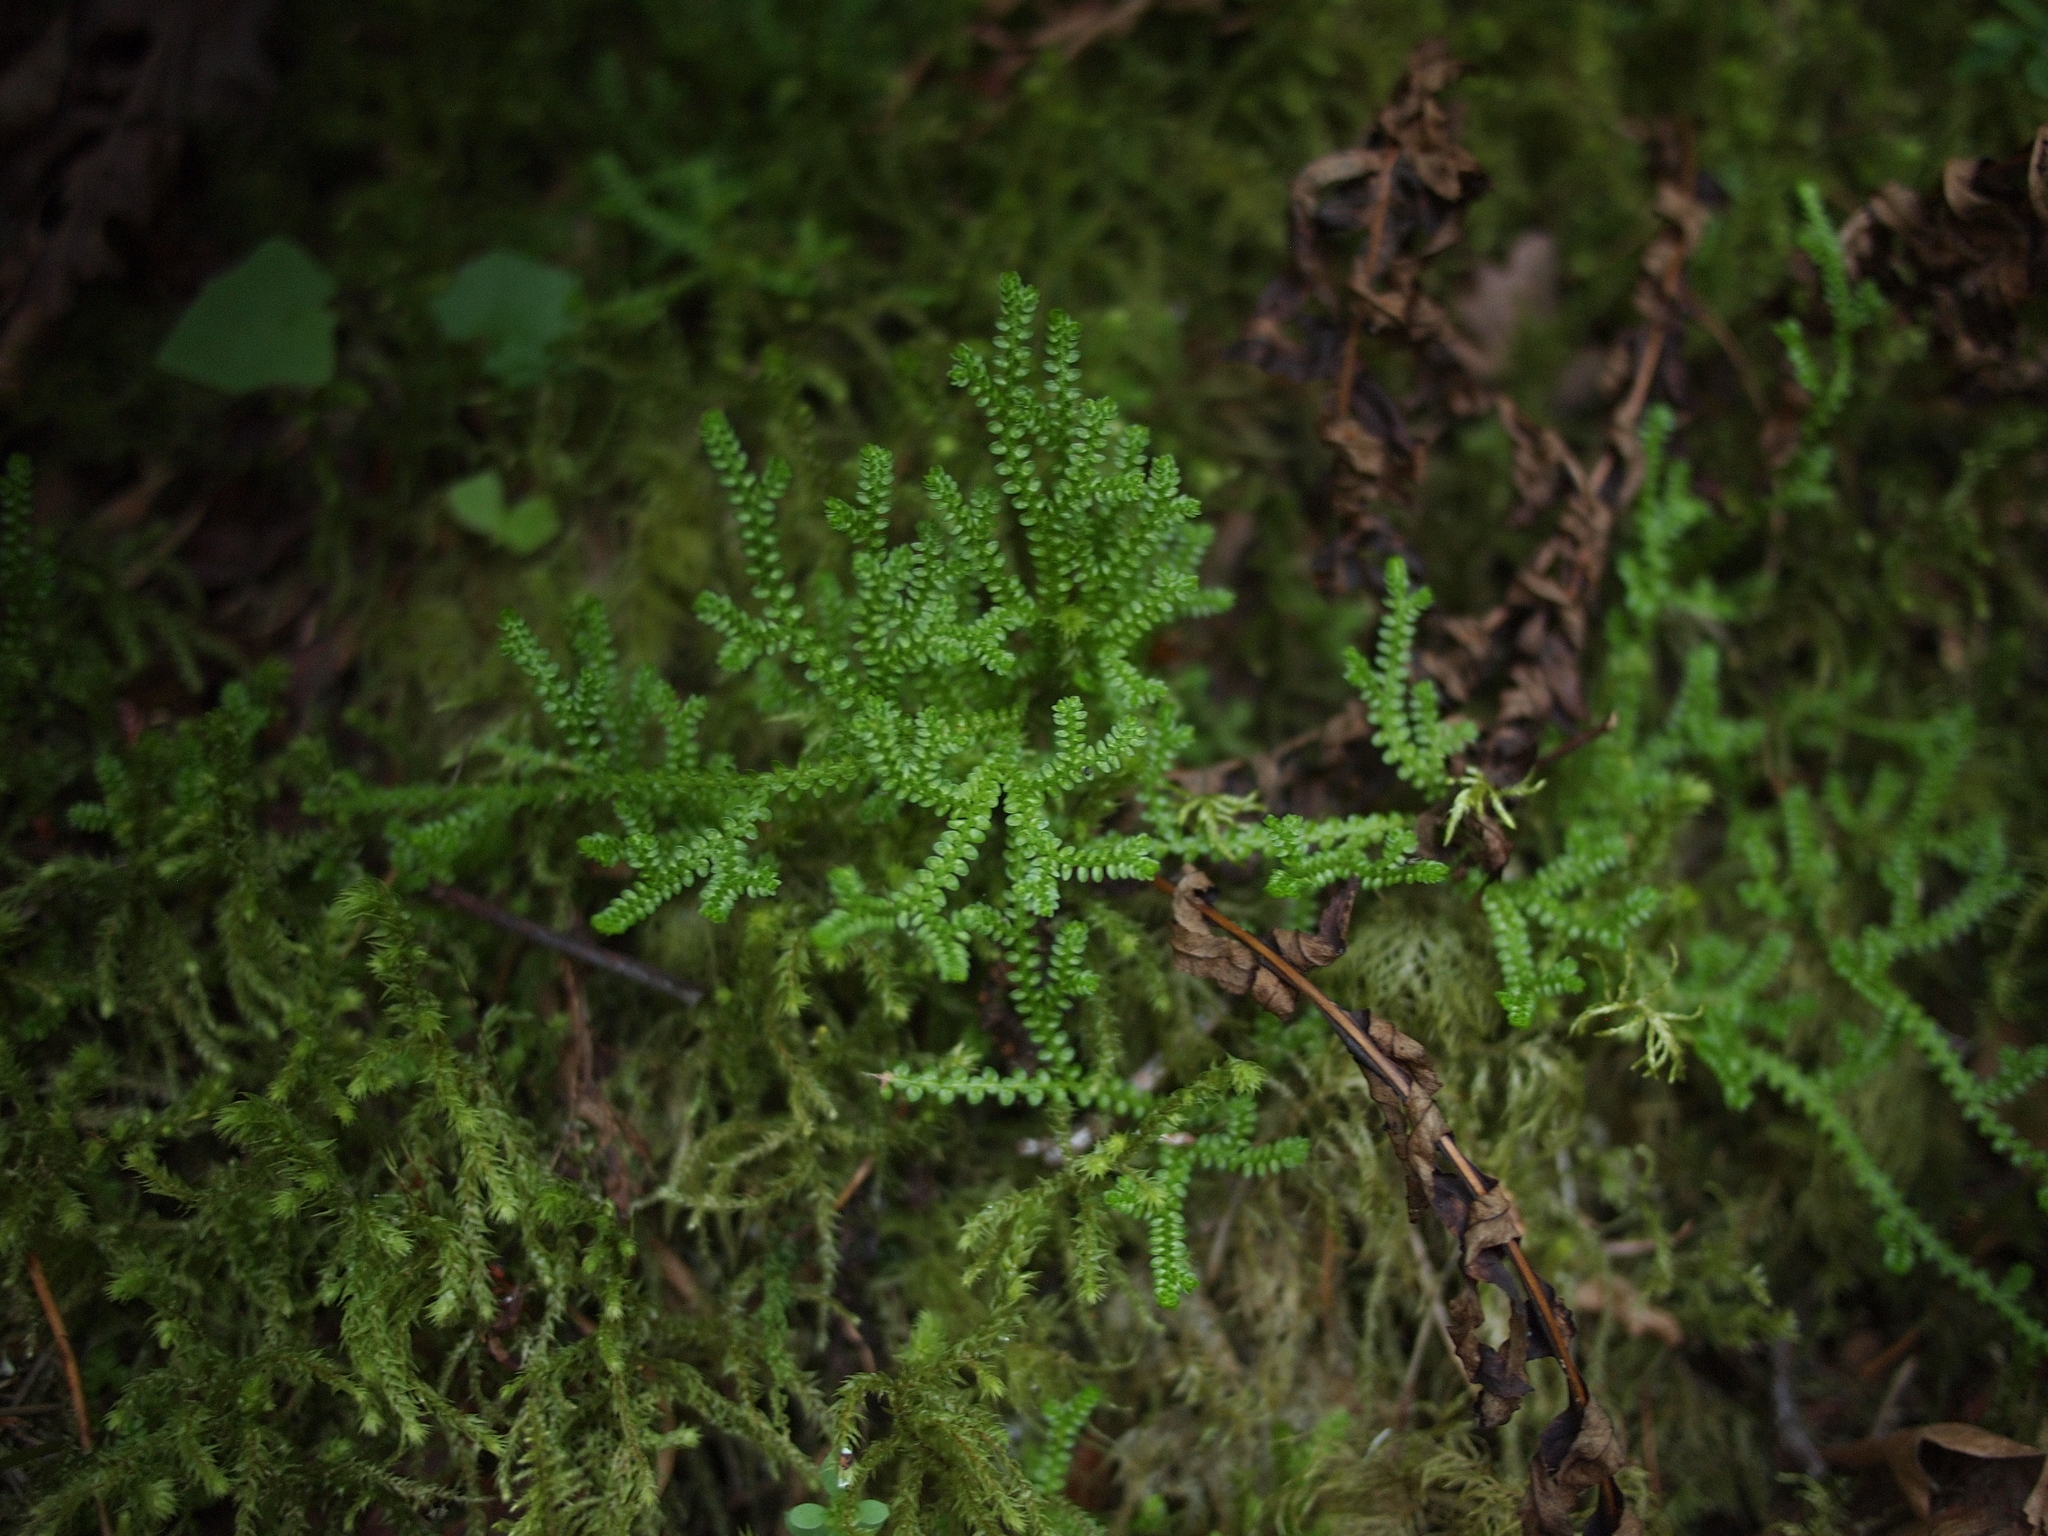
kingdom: Plantae
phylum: Tracheophyta
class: Lycopodiopsida
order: Selaginellales
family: Selaginellaceae
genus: Selaginella
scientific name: Selaginella douglasii
